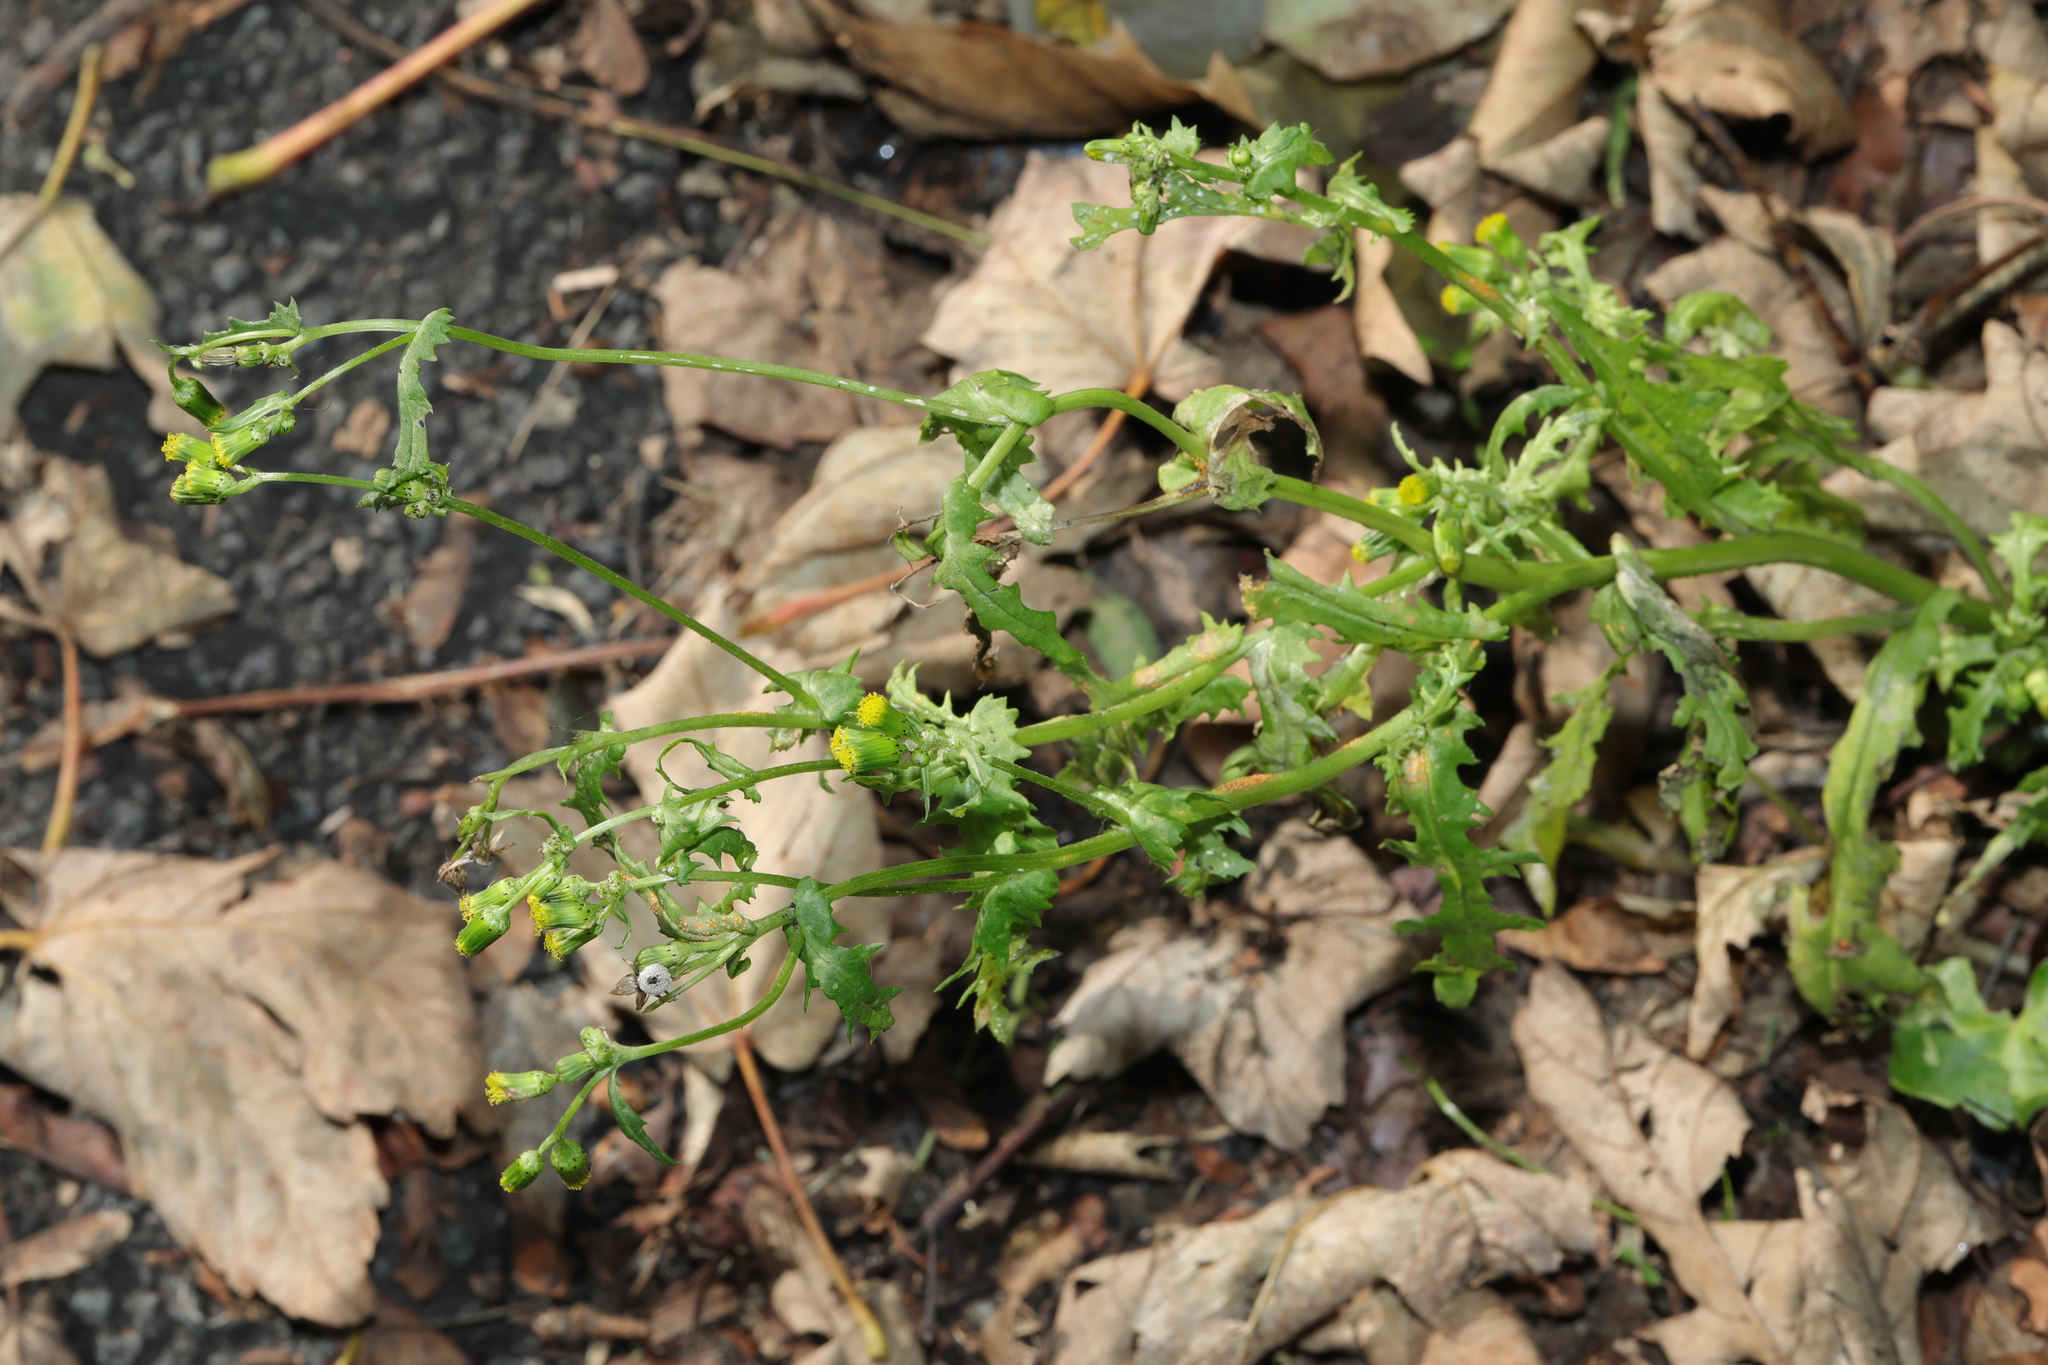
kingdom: Plantae
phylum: Tracheophyta
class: Magnoliopsida
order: Asterales
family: Asteraceae
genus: Senecio
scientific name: Senecio vulgaris
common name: Old-man-in-the-spring
